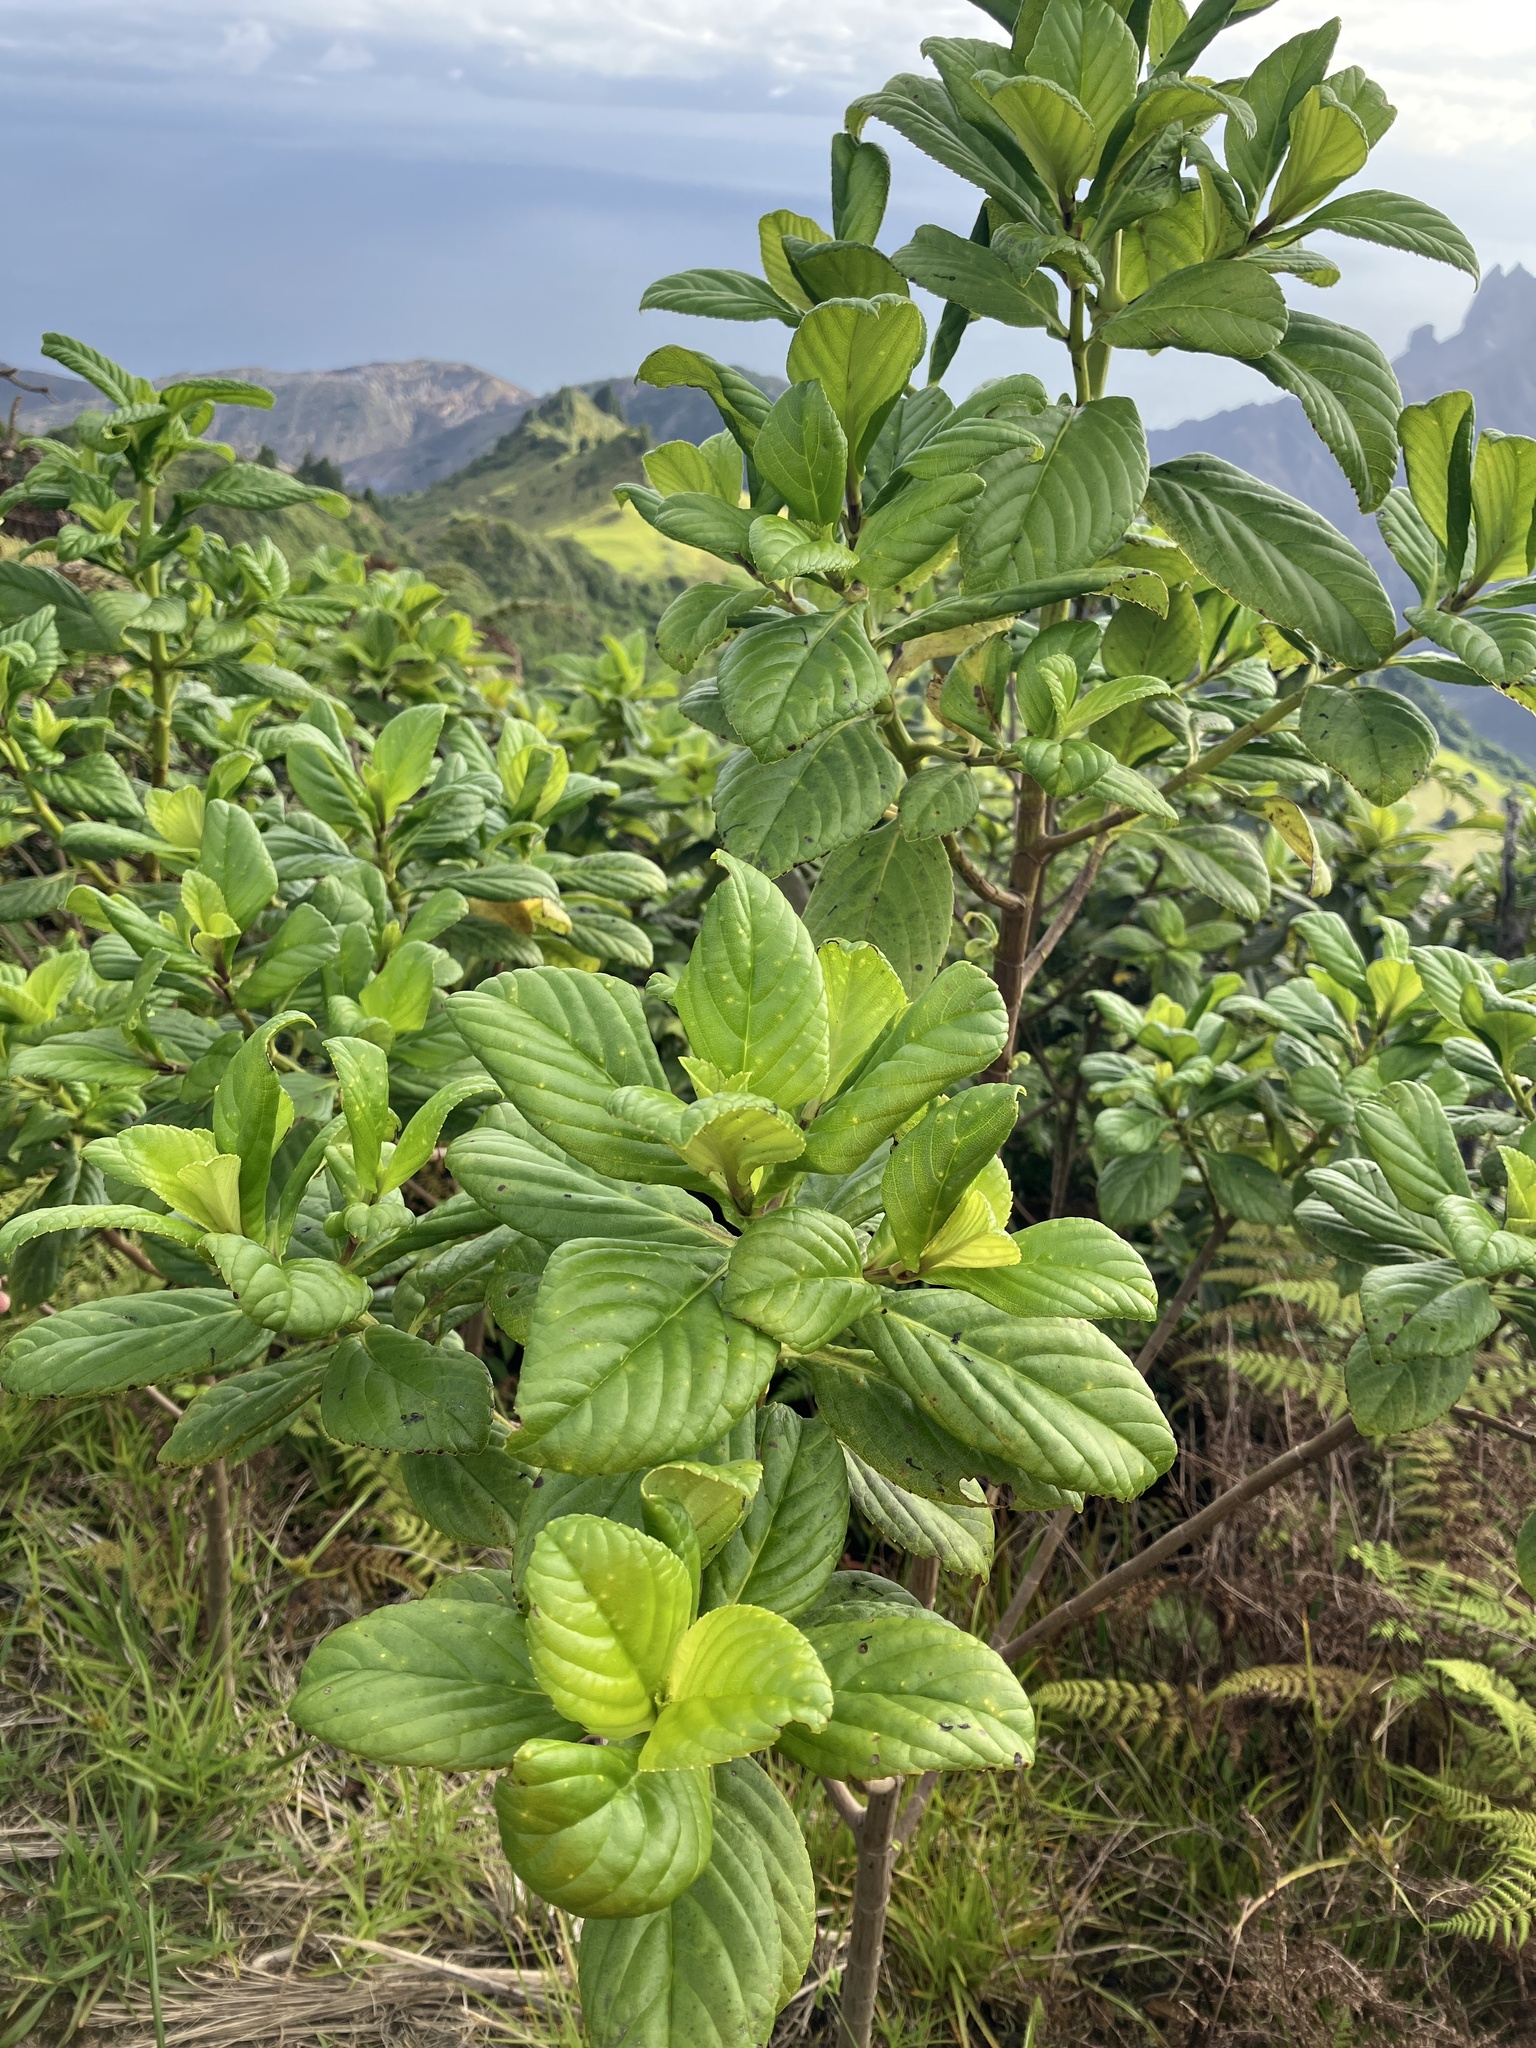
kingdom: Plantae
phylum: Tracheophyta
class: Magnoliopsida
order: Asterales
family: Asteraceae
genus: Petrobium
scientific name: Petrobium arboreum
